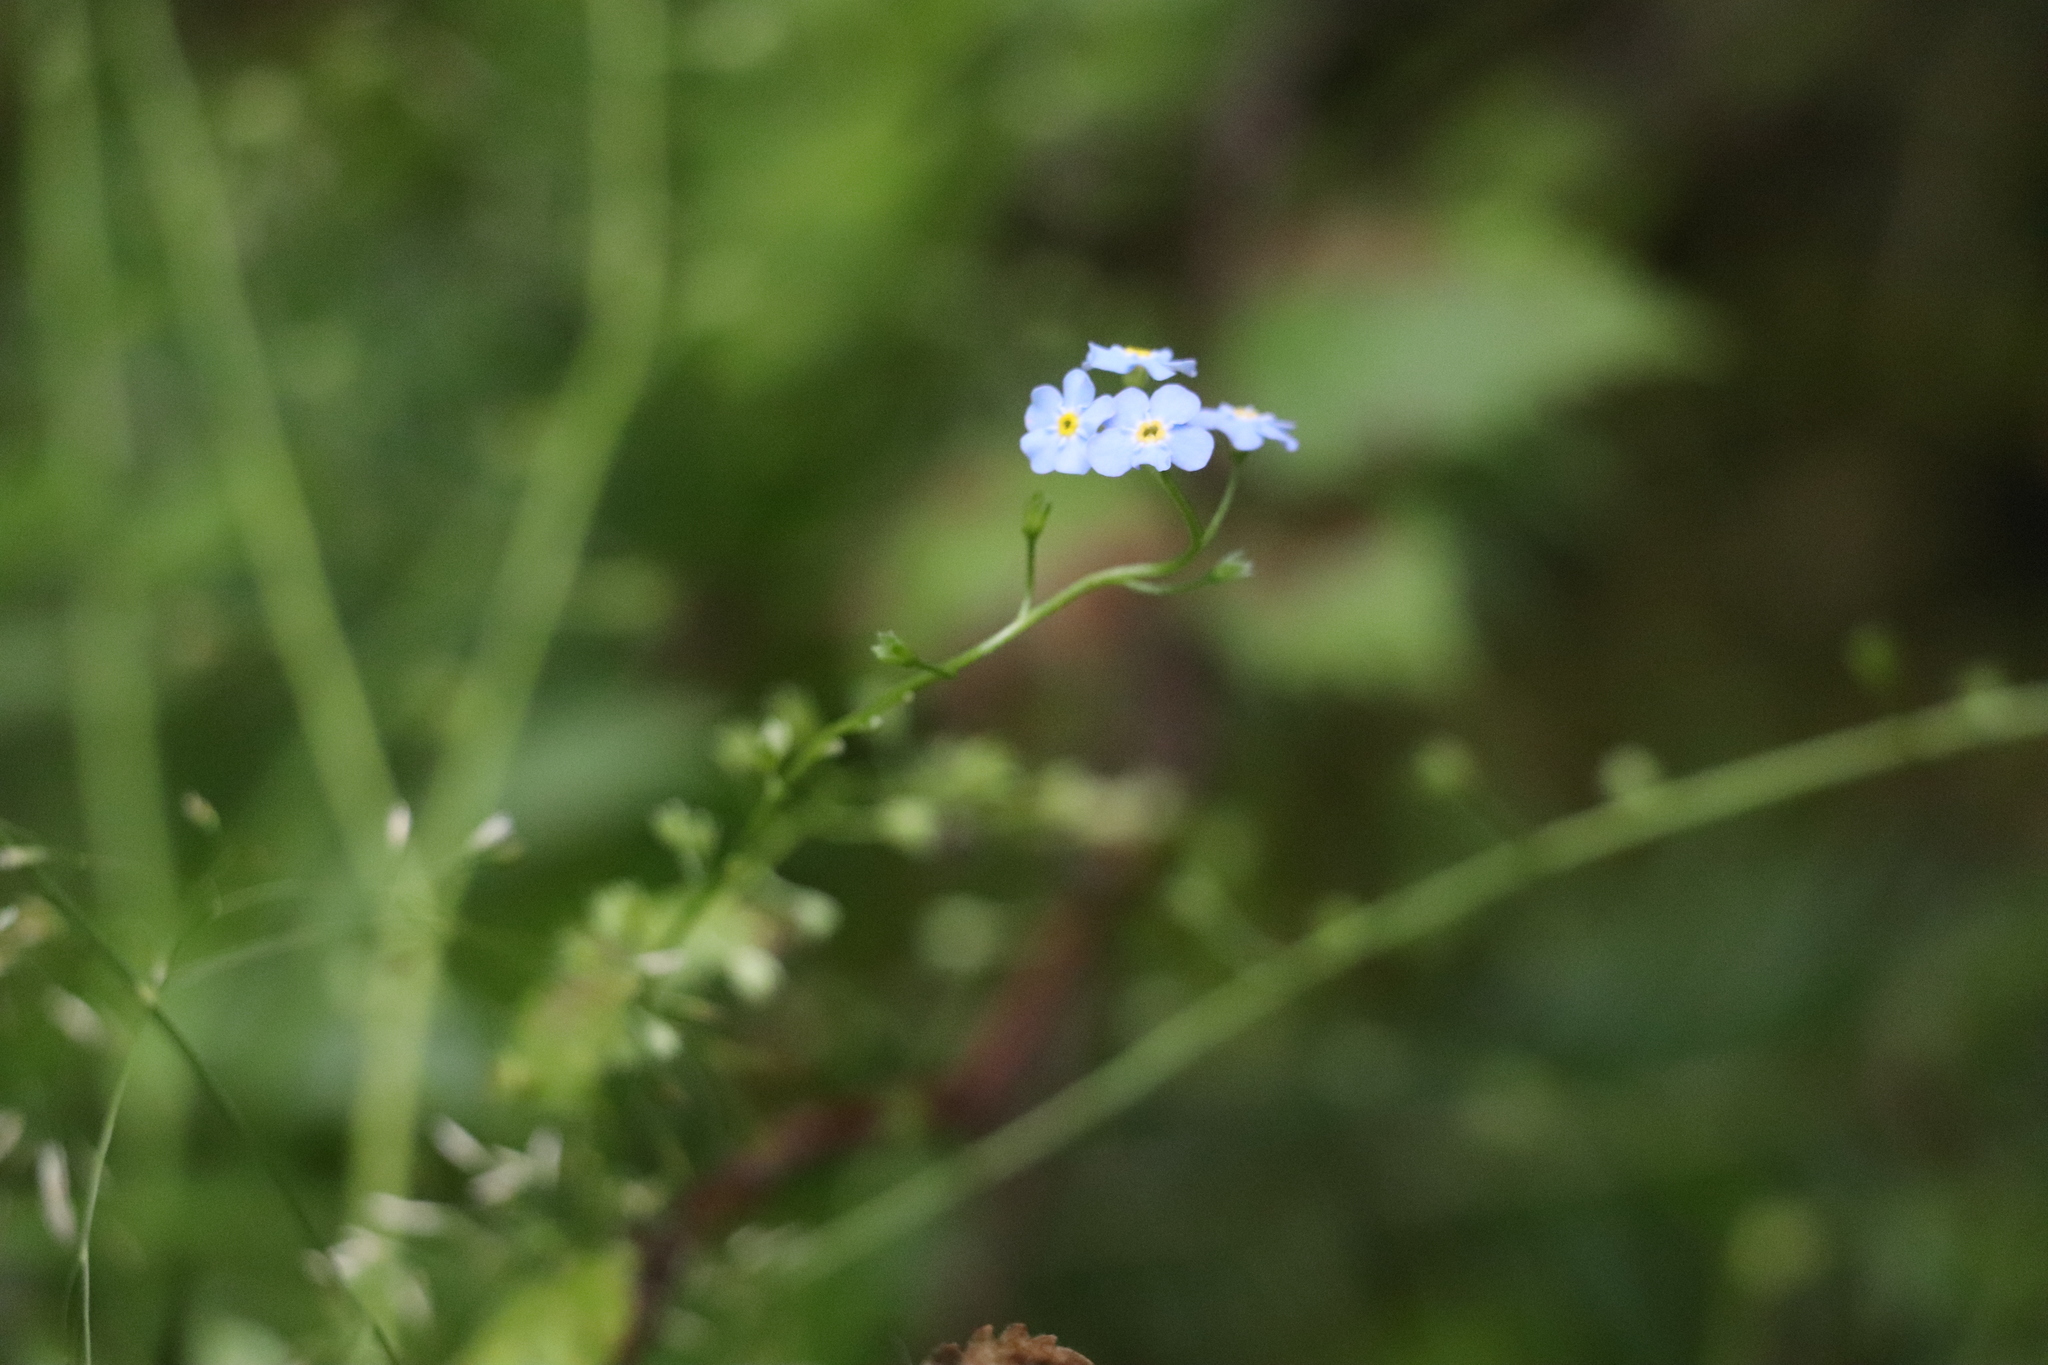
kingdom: Plantae
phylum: Tracheophyta
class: Magnoliopsida
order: Boraginales
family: Boraginaceae
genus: Myosotis
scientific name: Myosotis scorpioides
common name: Water forget-me-not
